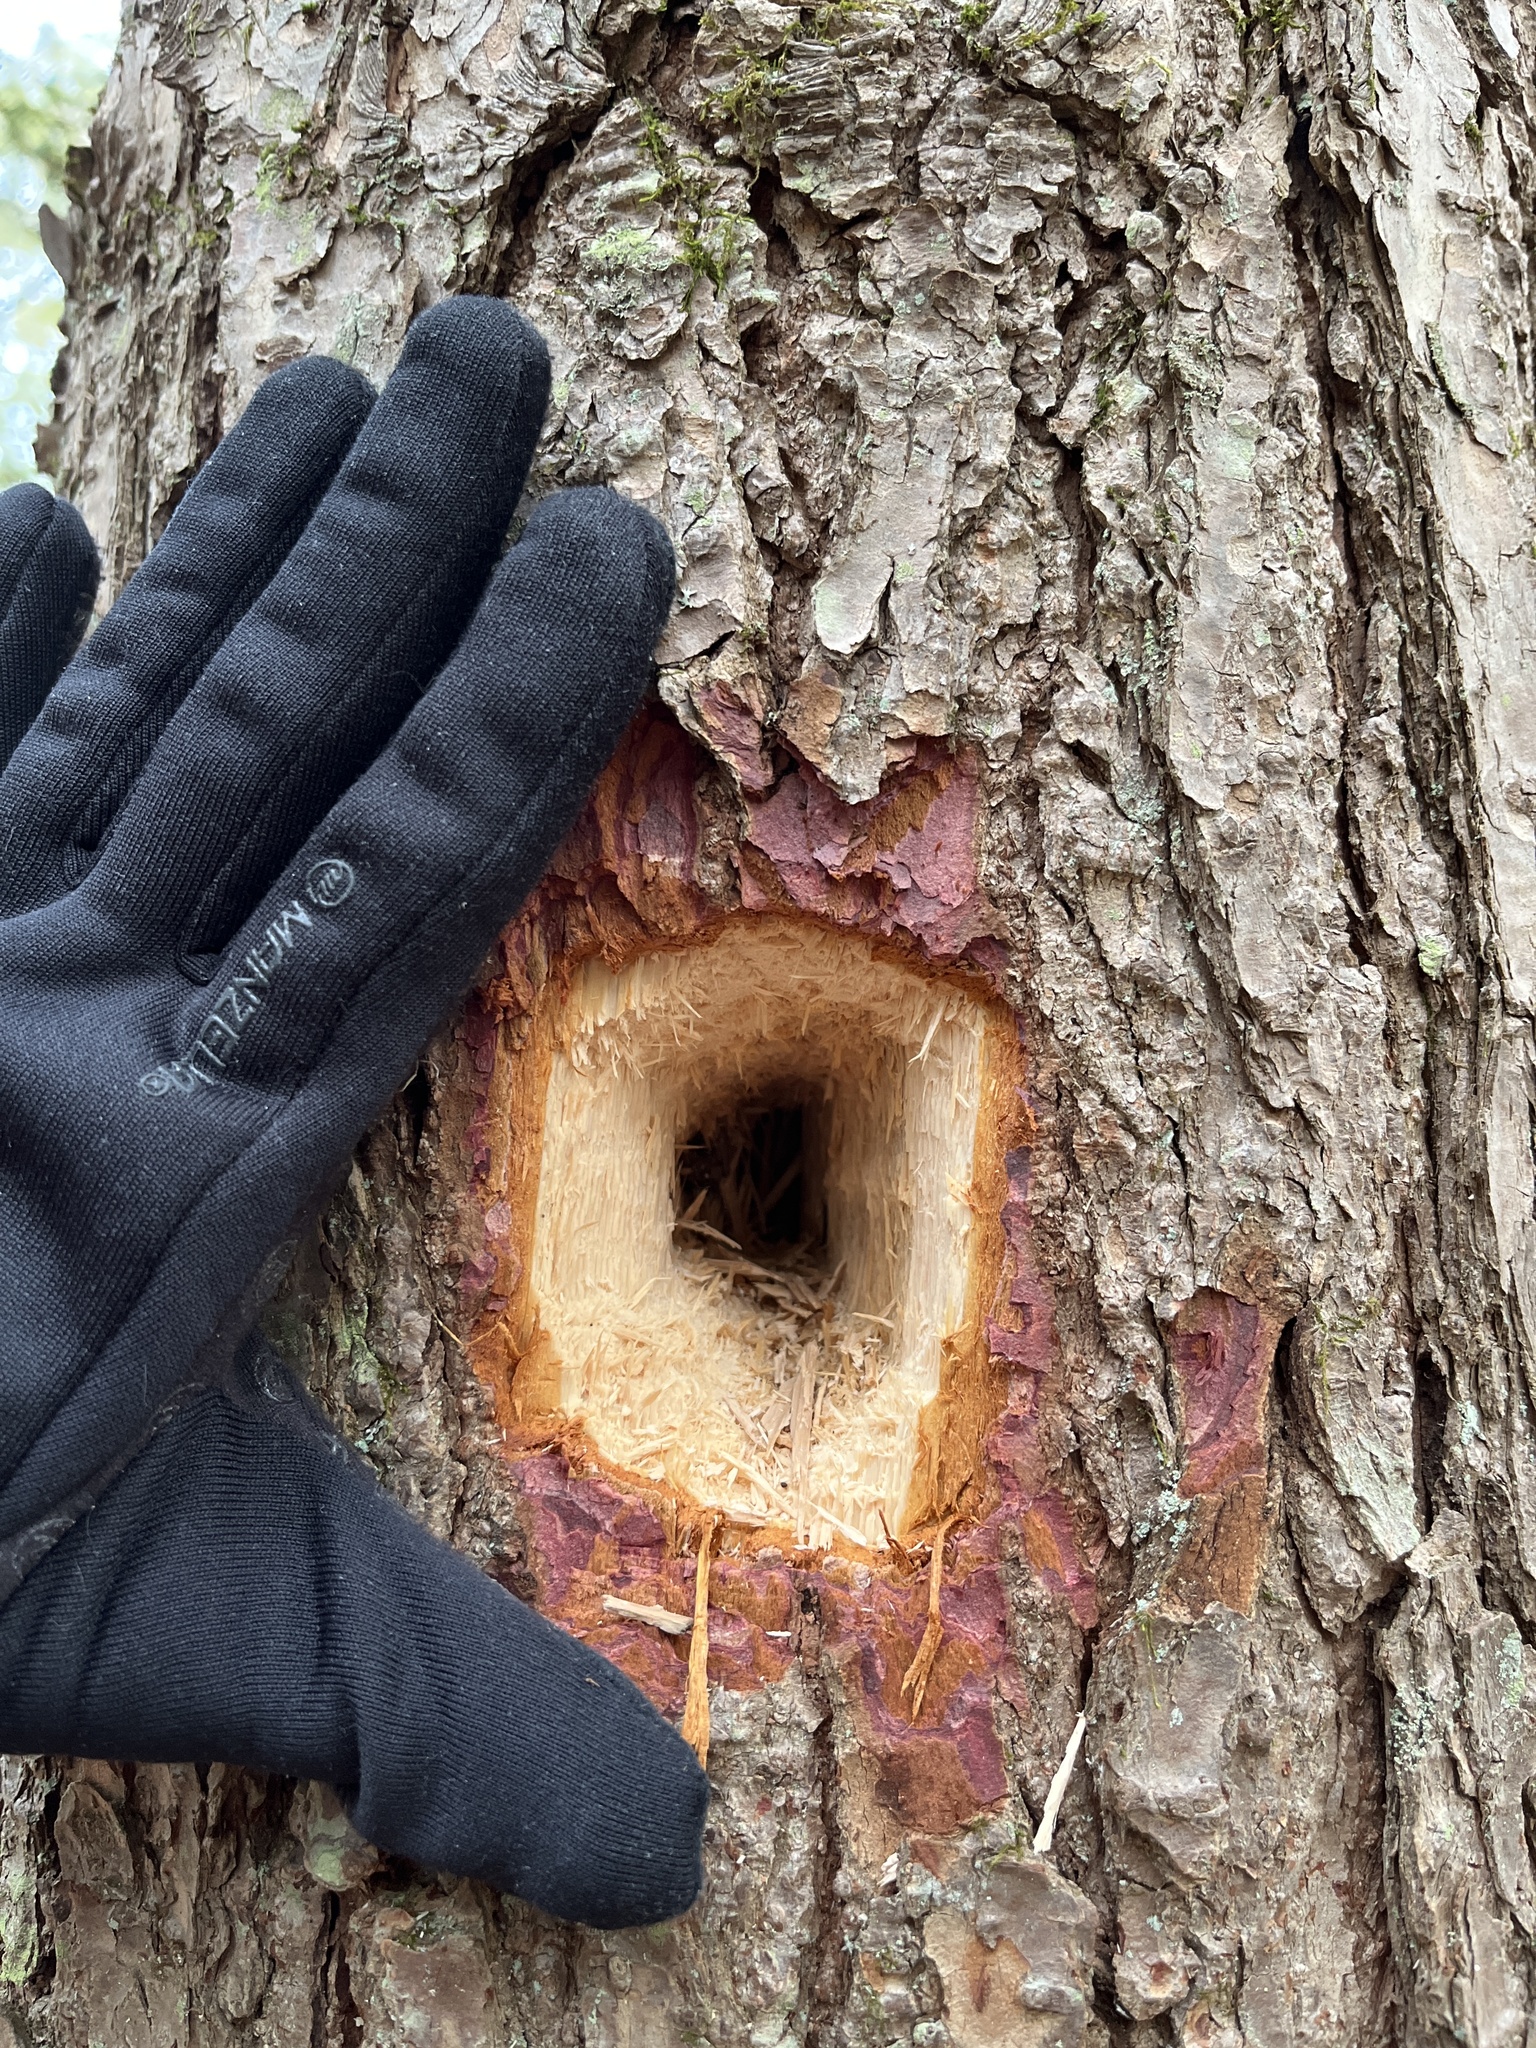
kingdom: Animalia
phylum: Chordata
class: Aves
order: Piciformes
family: Picidae
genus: Dryocopus
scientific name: Dryocopus pileatus
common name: Pileated woodpecker
